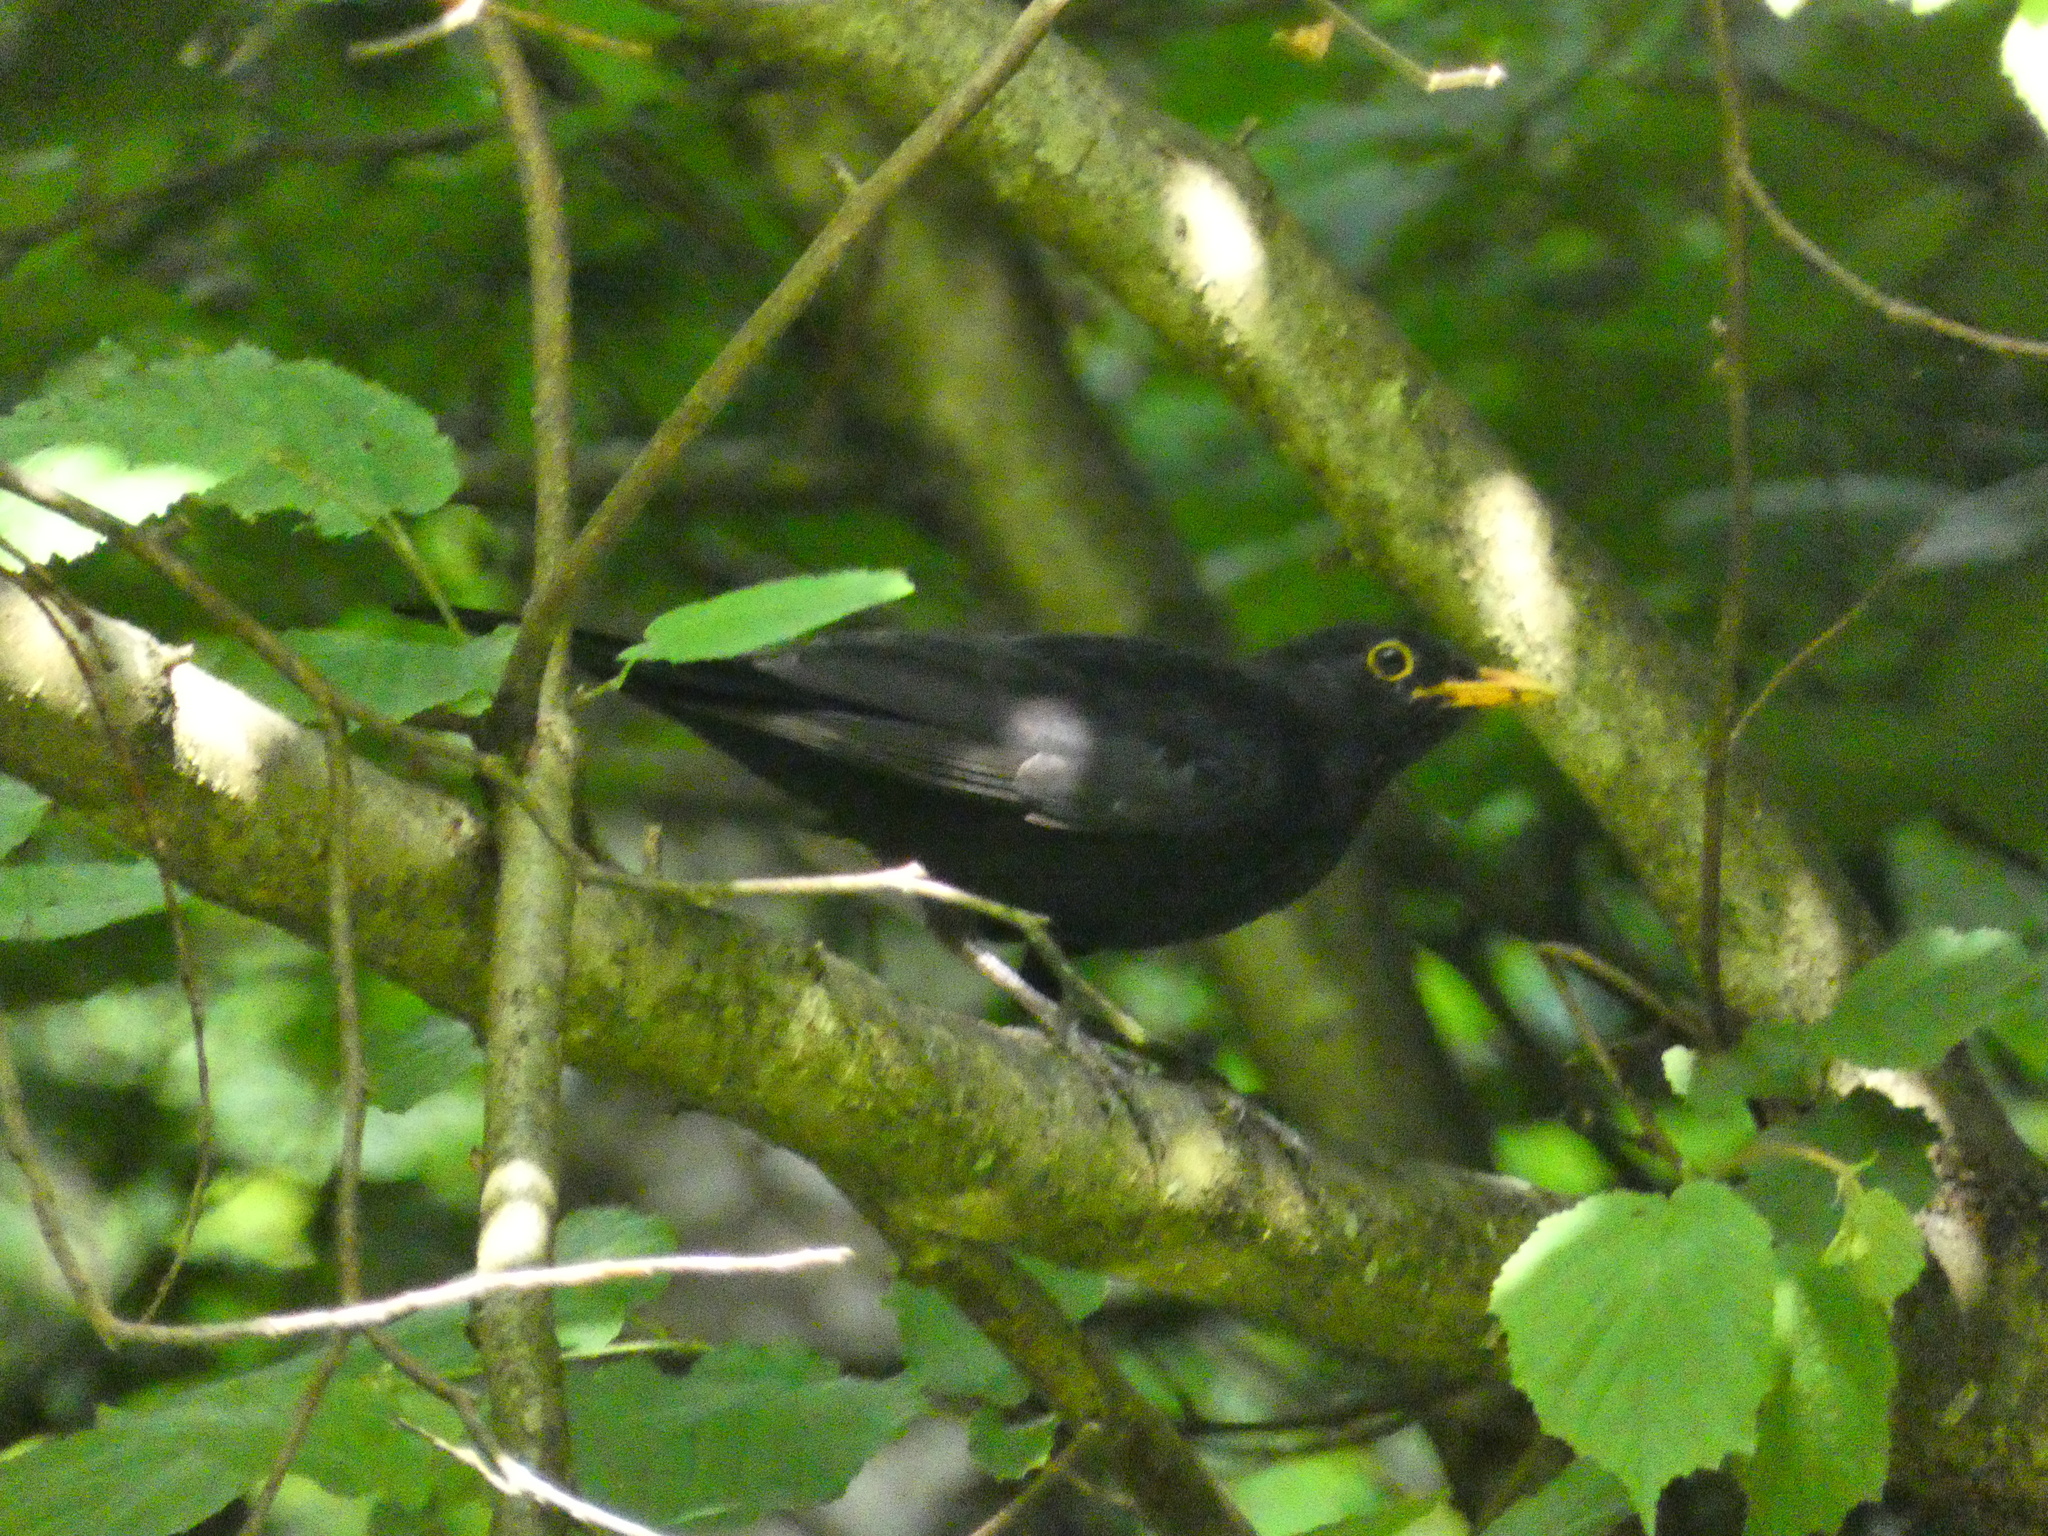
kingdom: Animalia
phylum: Chordata
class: Aves
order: Passeriformes
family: Turdidae
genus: Turdus
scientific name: Turdus merula
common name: Common blackbird
